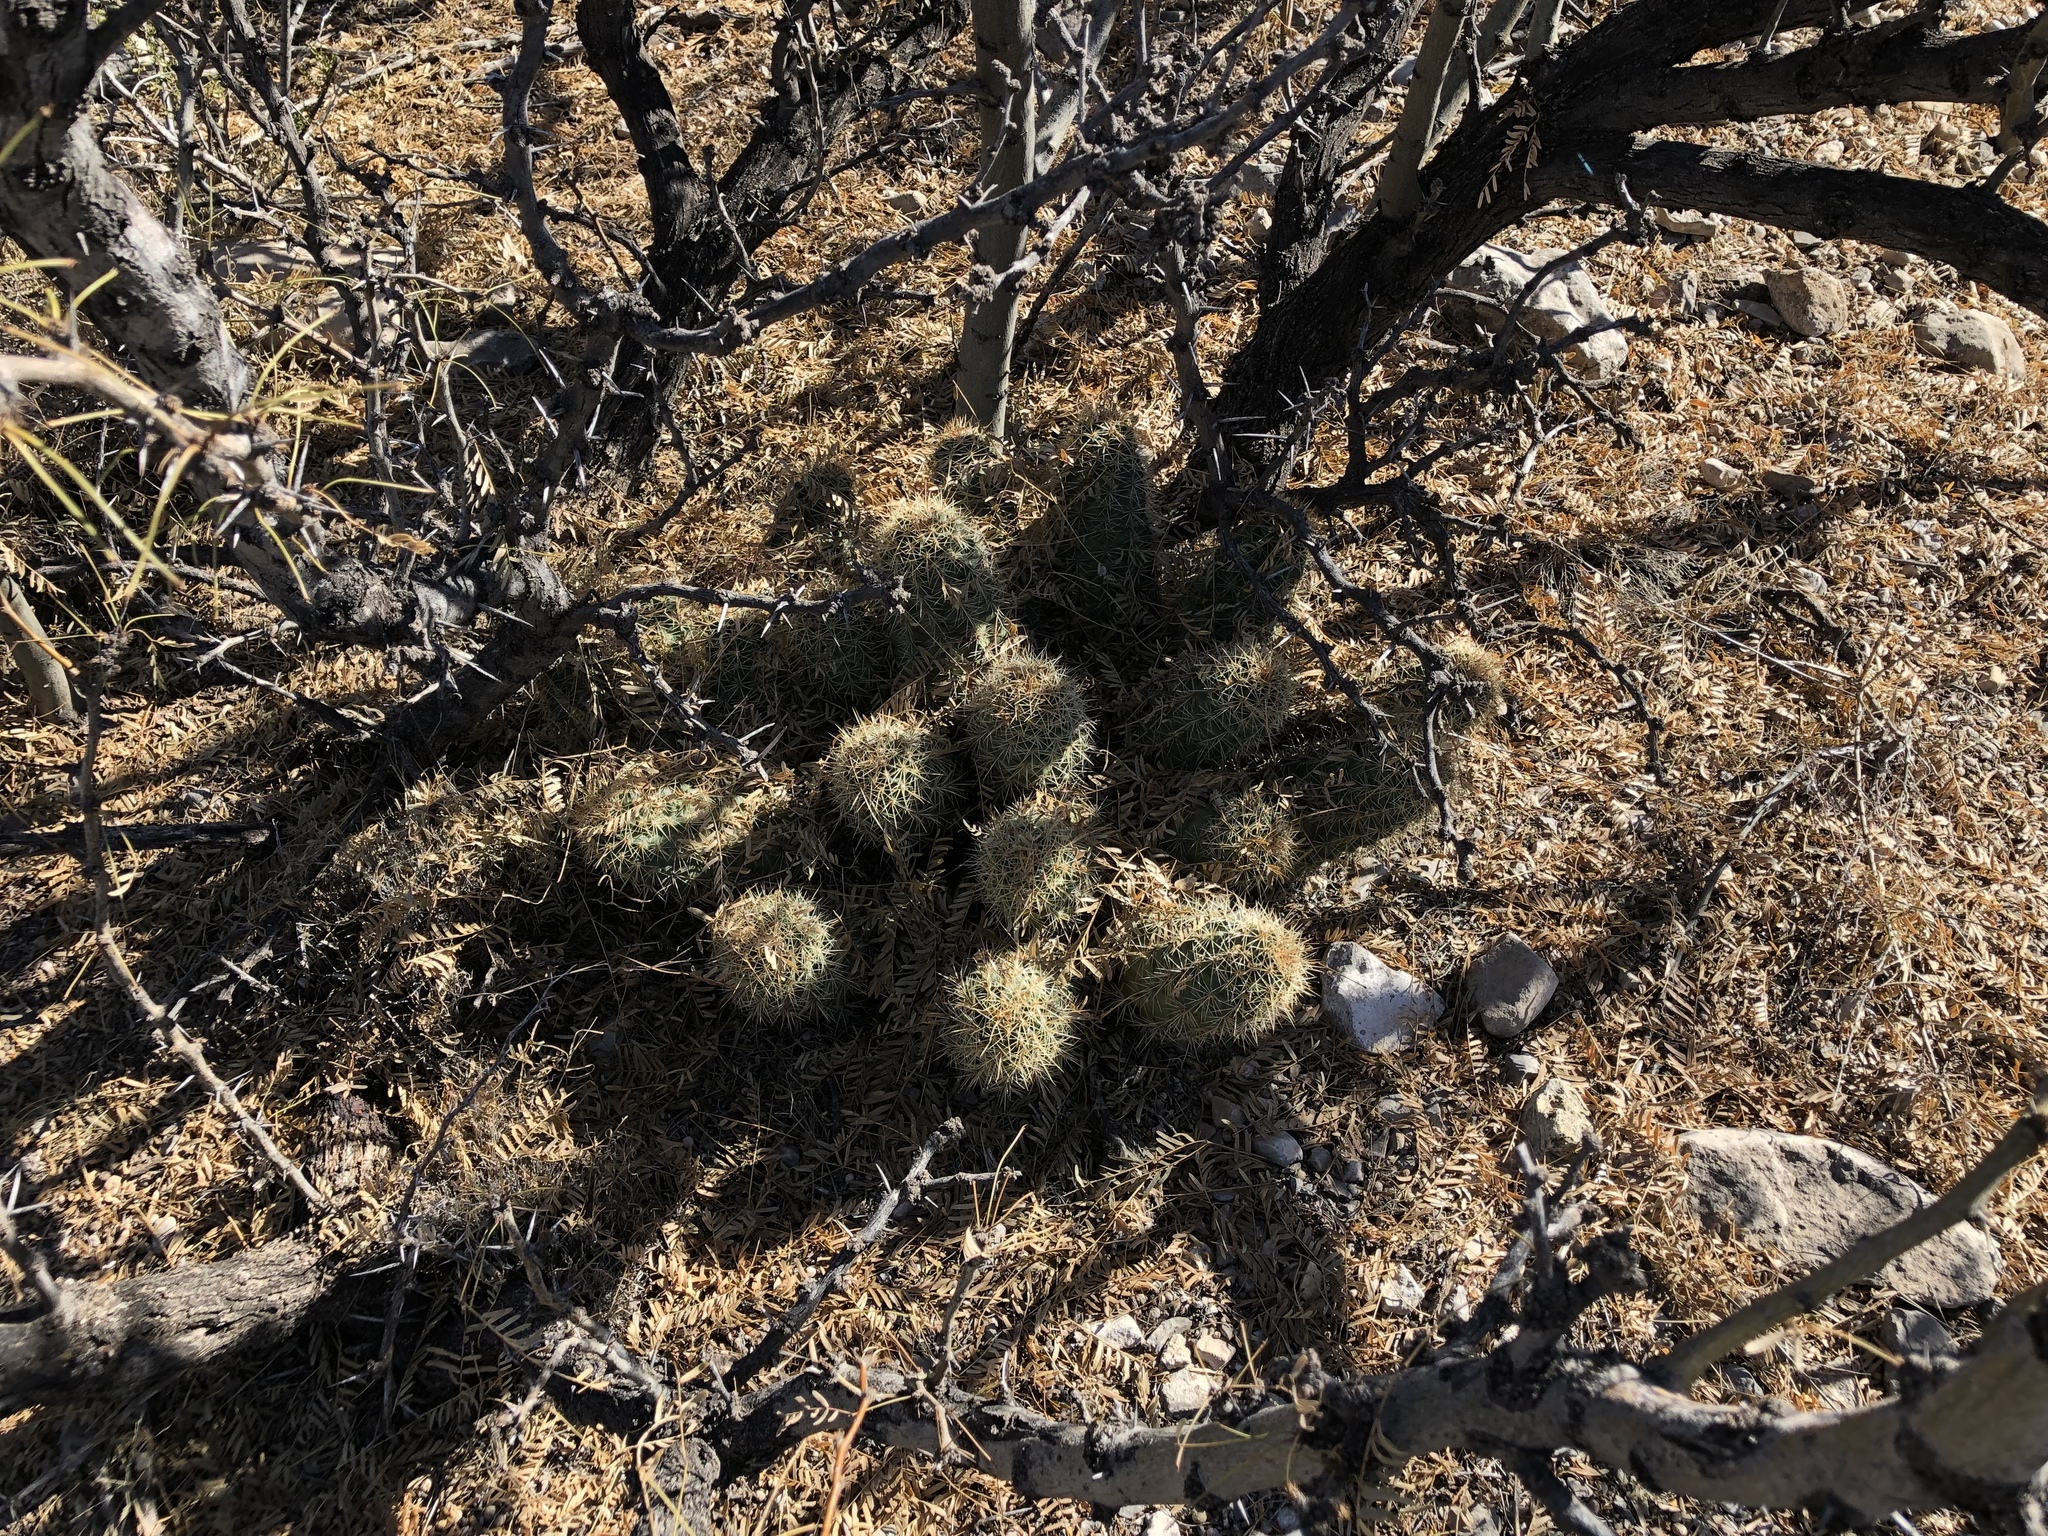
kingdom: Plantae
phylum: Tracheophyta
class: Magnoliopsida
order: Caryophyllales
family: Cactaceae
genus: Echinocereus
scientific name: Echinocereus coccineus
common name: Scarlet hedgehog cactus
